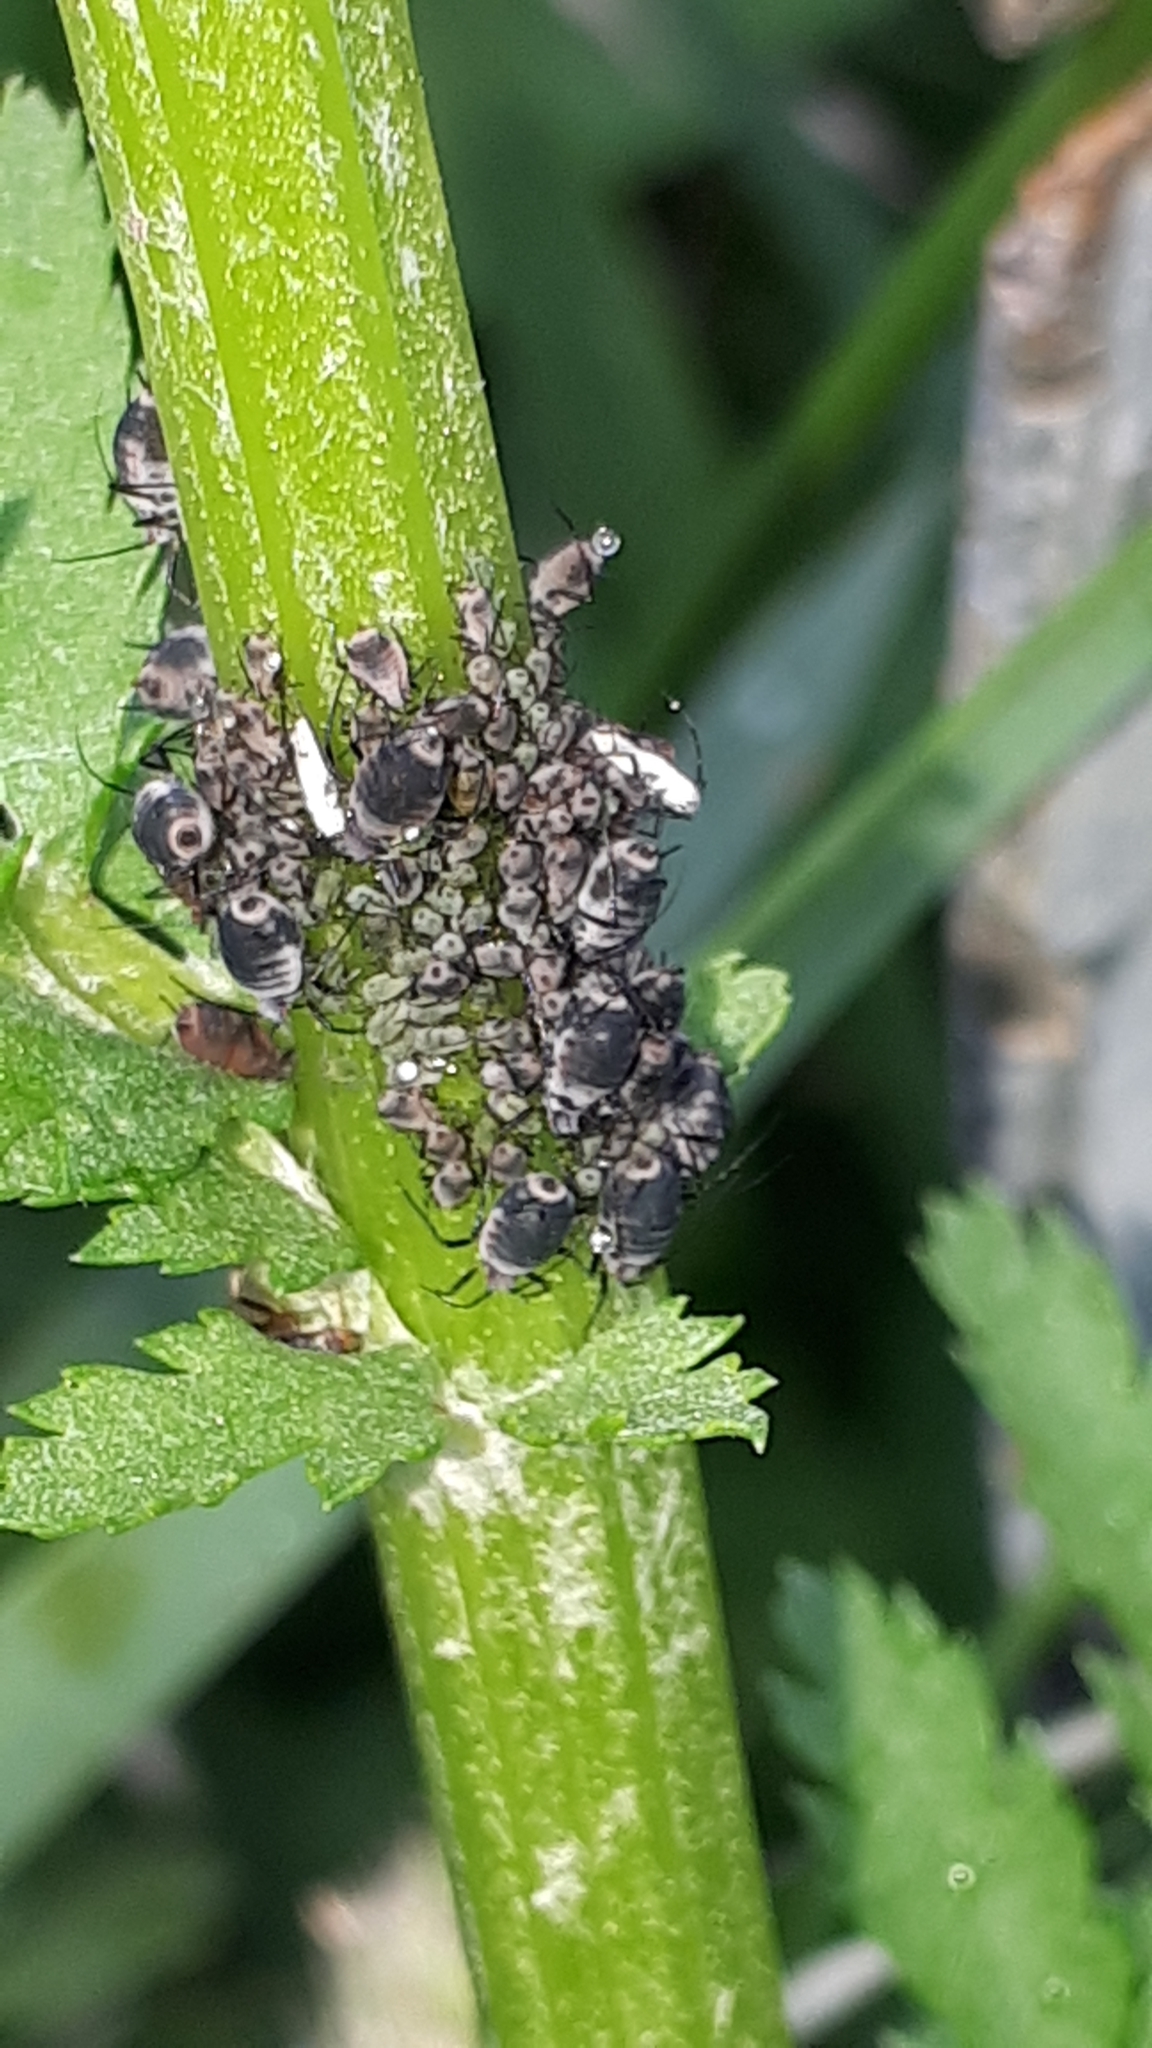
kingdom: Animalia
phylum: Arthropoda
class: Insecta
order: Hemiptera
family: Aphididae
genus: Metopeurum
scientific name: Metopeurum fuscoviride
